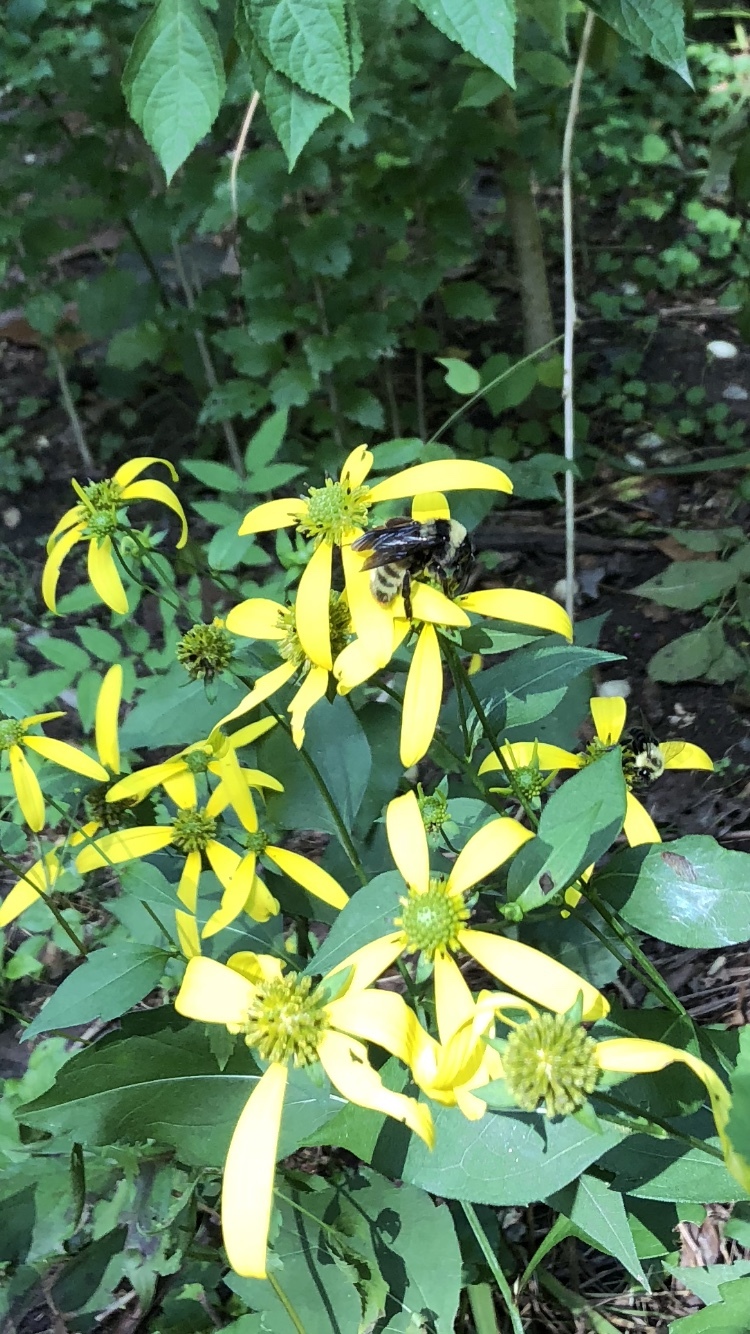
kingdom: Animalia
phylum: Arthropoda
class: Insecta
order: Hymenoptera
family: Apidae
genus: Bombus
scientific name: Bombus pensylvanicus
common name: Bumble bee
